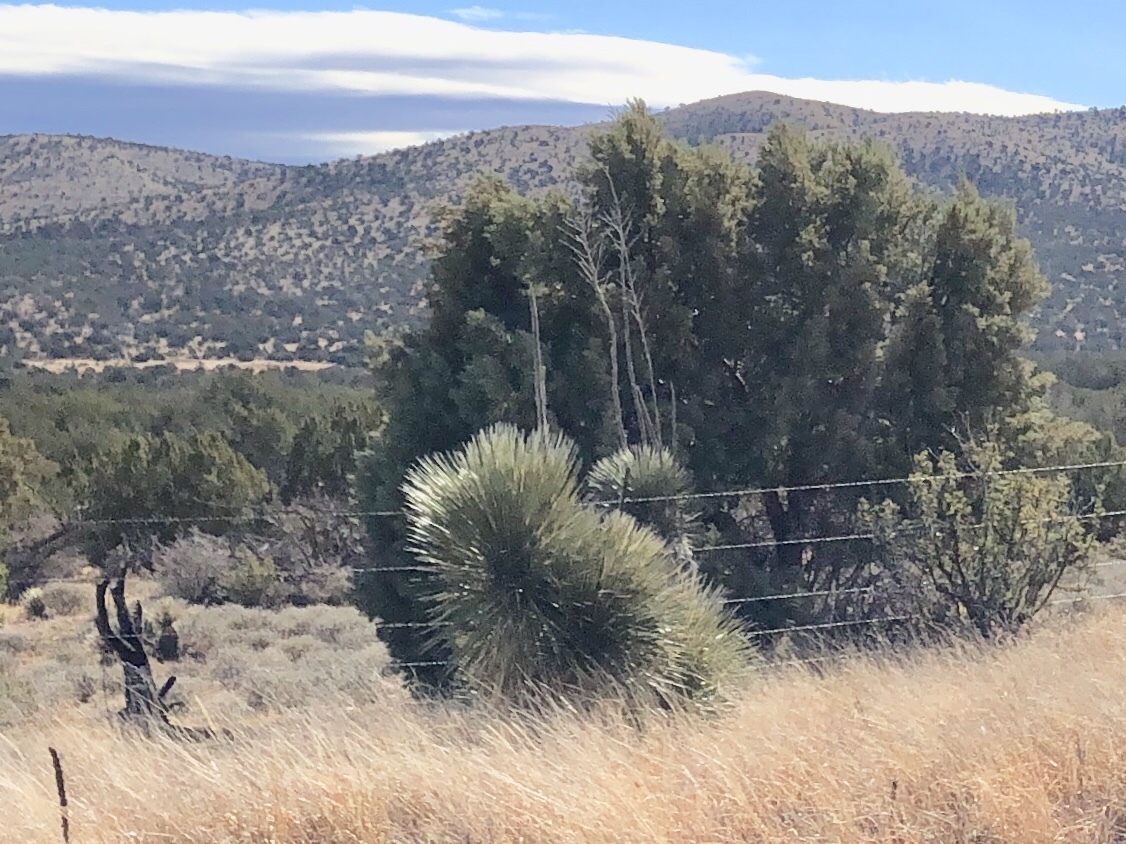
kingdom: Plantae
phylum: Tracheophyta
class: Liliopsida
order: Asparagales
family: Asparagaceae
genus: Yucca
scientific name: Yucca elata
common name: Palmella
